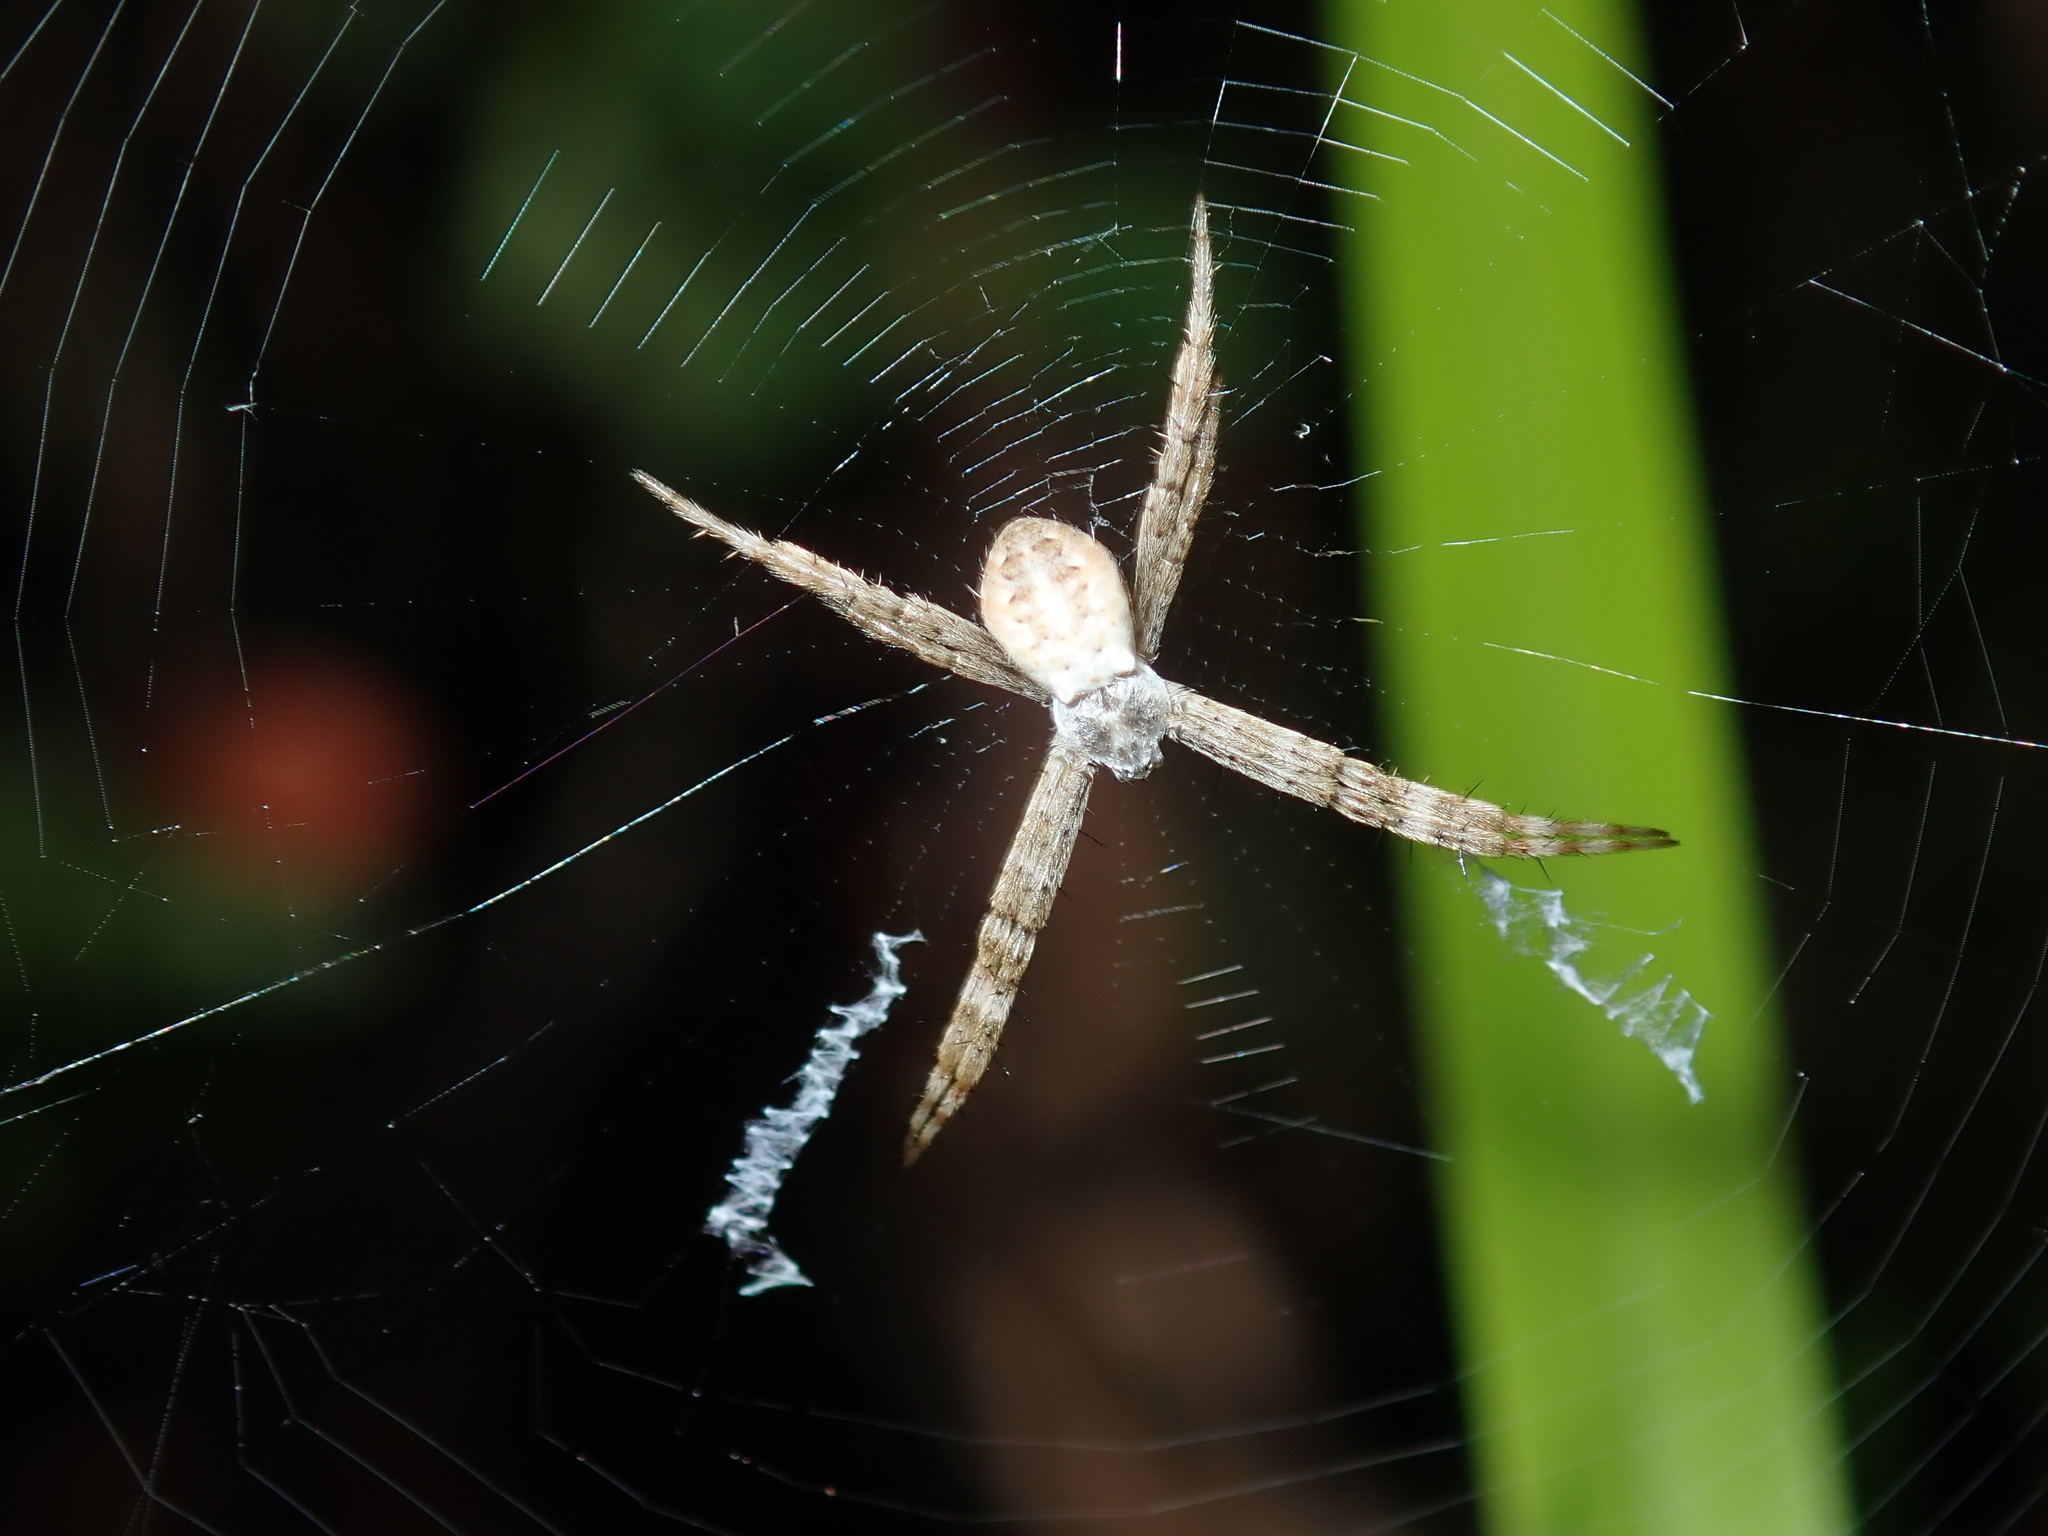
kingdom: Animalia
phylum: Arthropoda
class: Arachnida
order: Araneae
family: Araneidae
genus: Argiope
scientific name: Argiope keyserlingi
